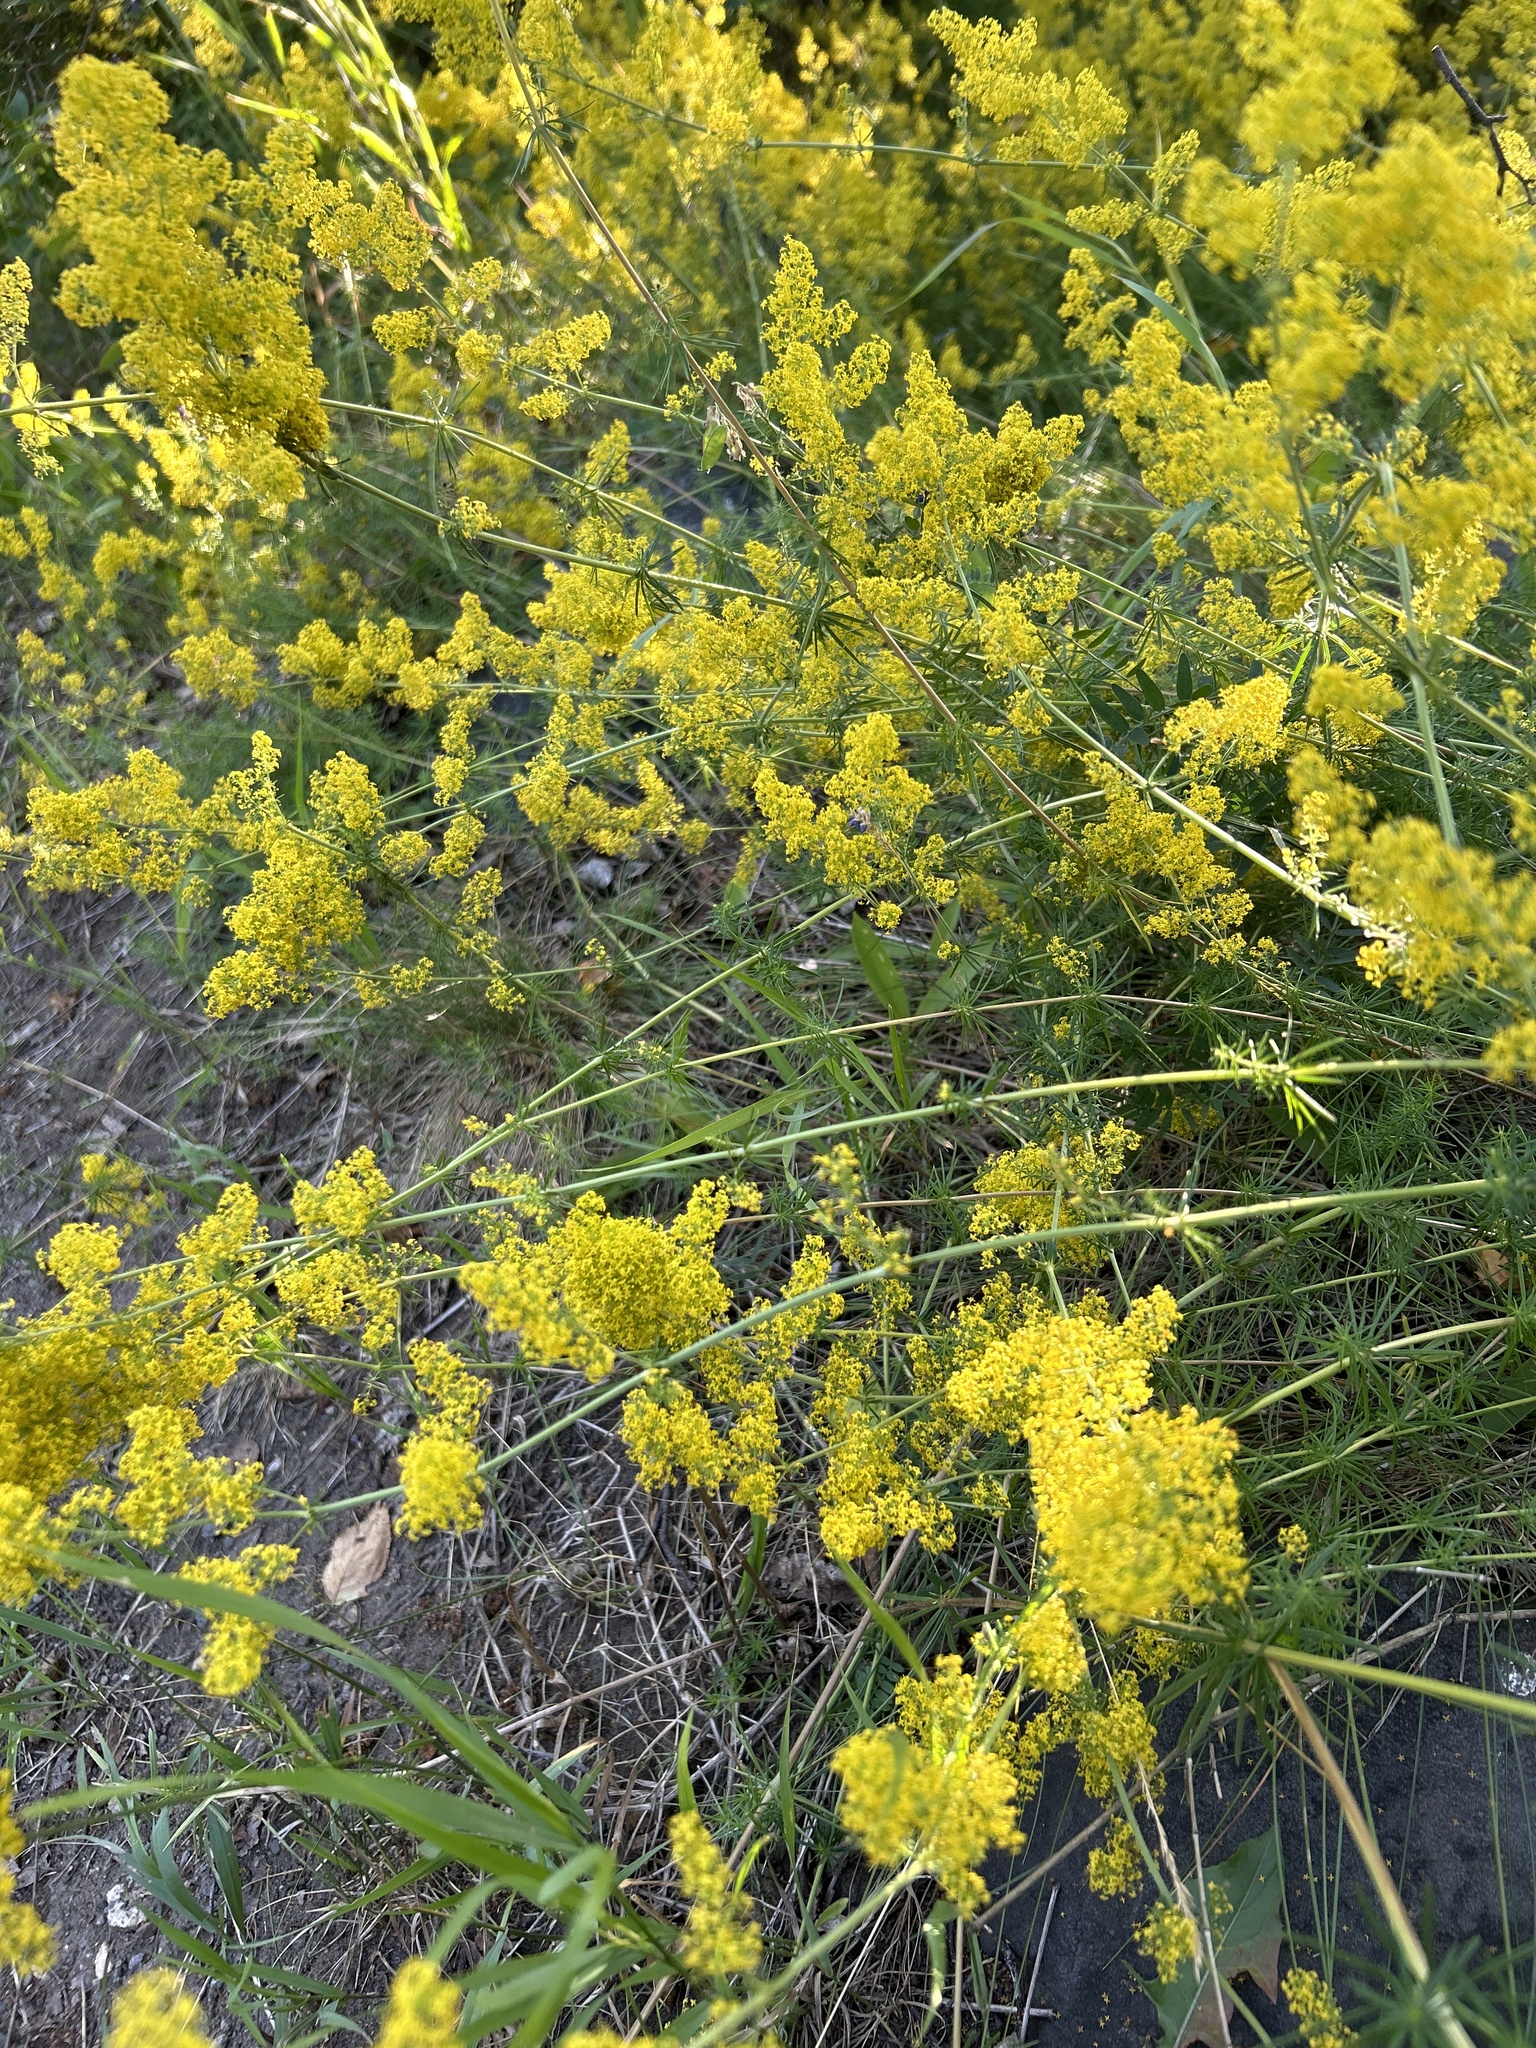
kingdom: Plantae
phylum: Tracheophyta
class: Magnoliopsida
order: Gentianales
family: Rubiaceae
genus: Galium
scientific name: Galium verum
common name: Lady's bedstraw
